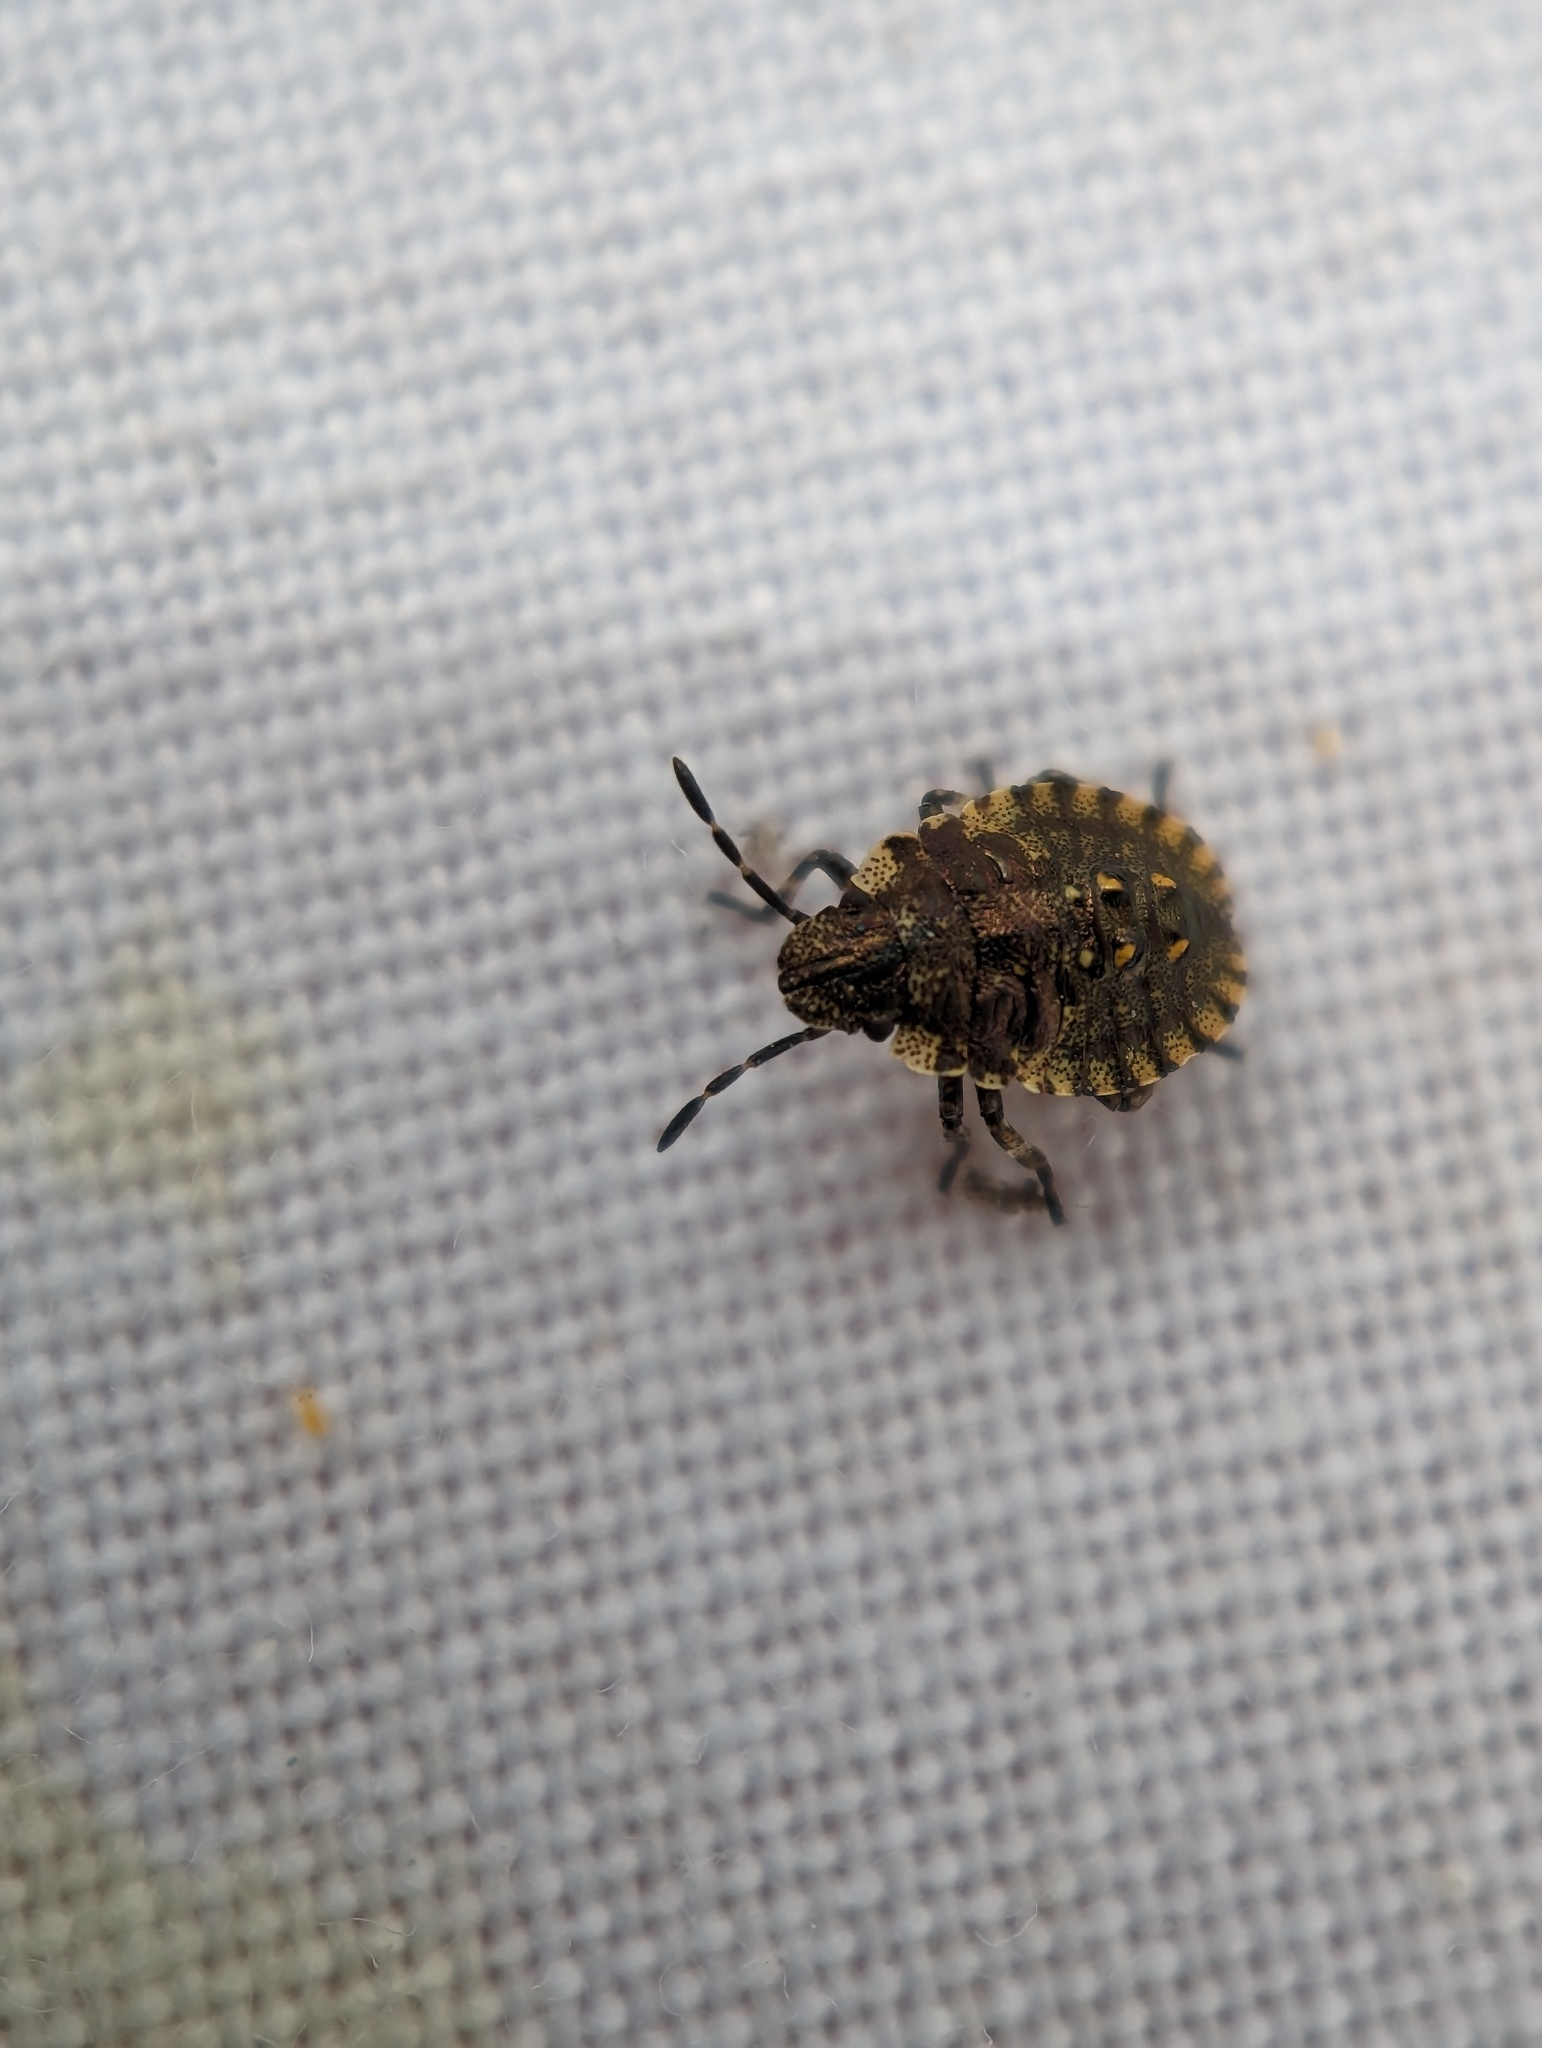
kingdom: Animalia
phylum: Arthropoda
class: Insecta
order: Hemiptera
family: Pentatomidae
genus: Pentatoma
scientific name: Pentatoma rufipes
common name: Forest bug
